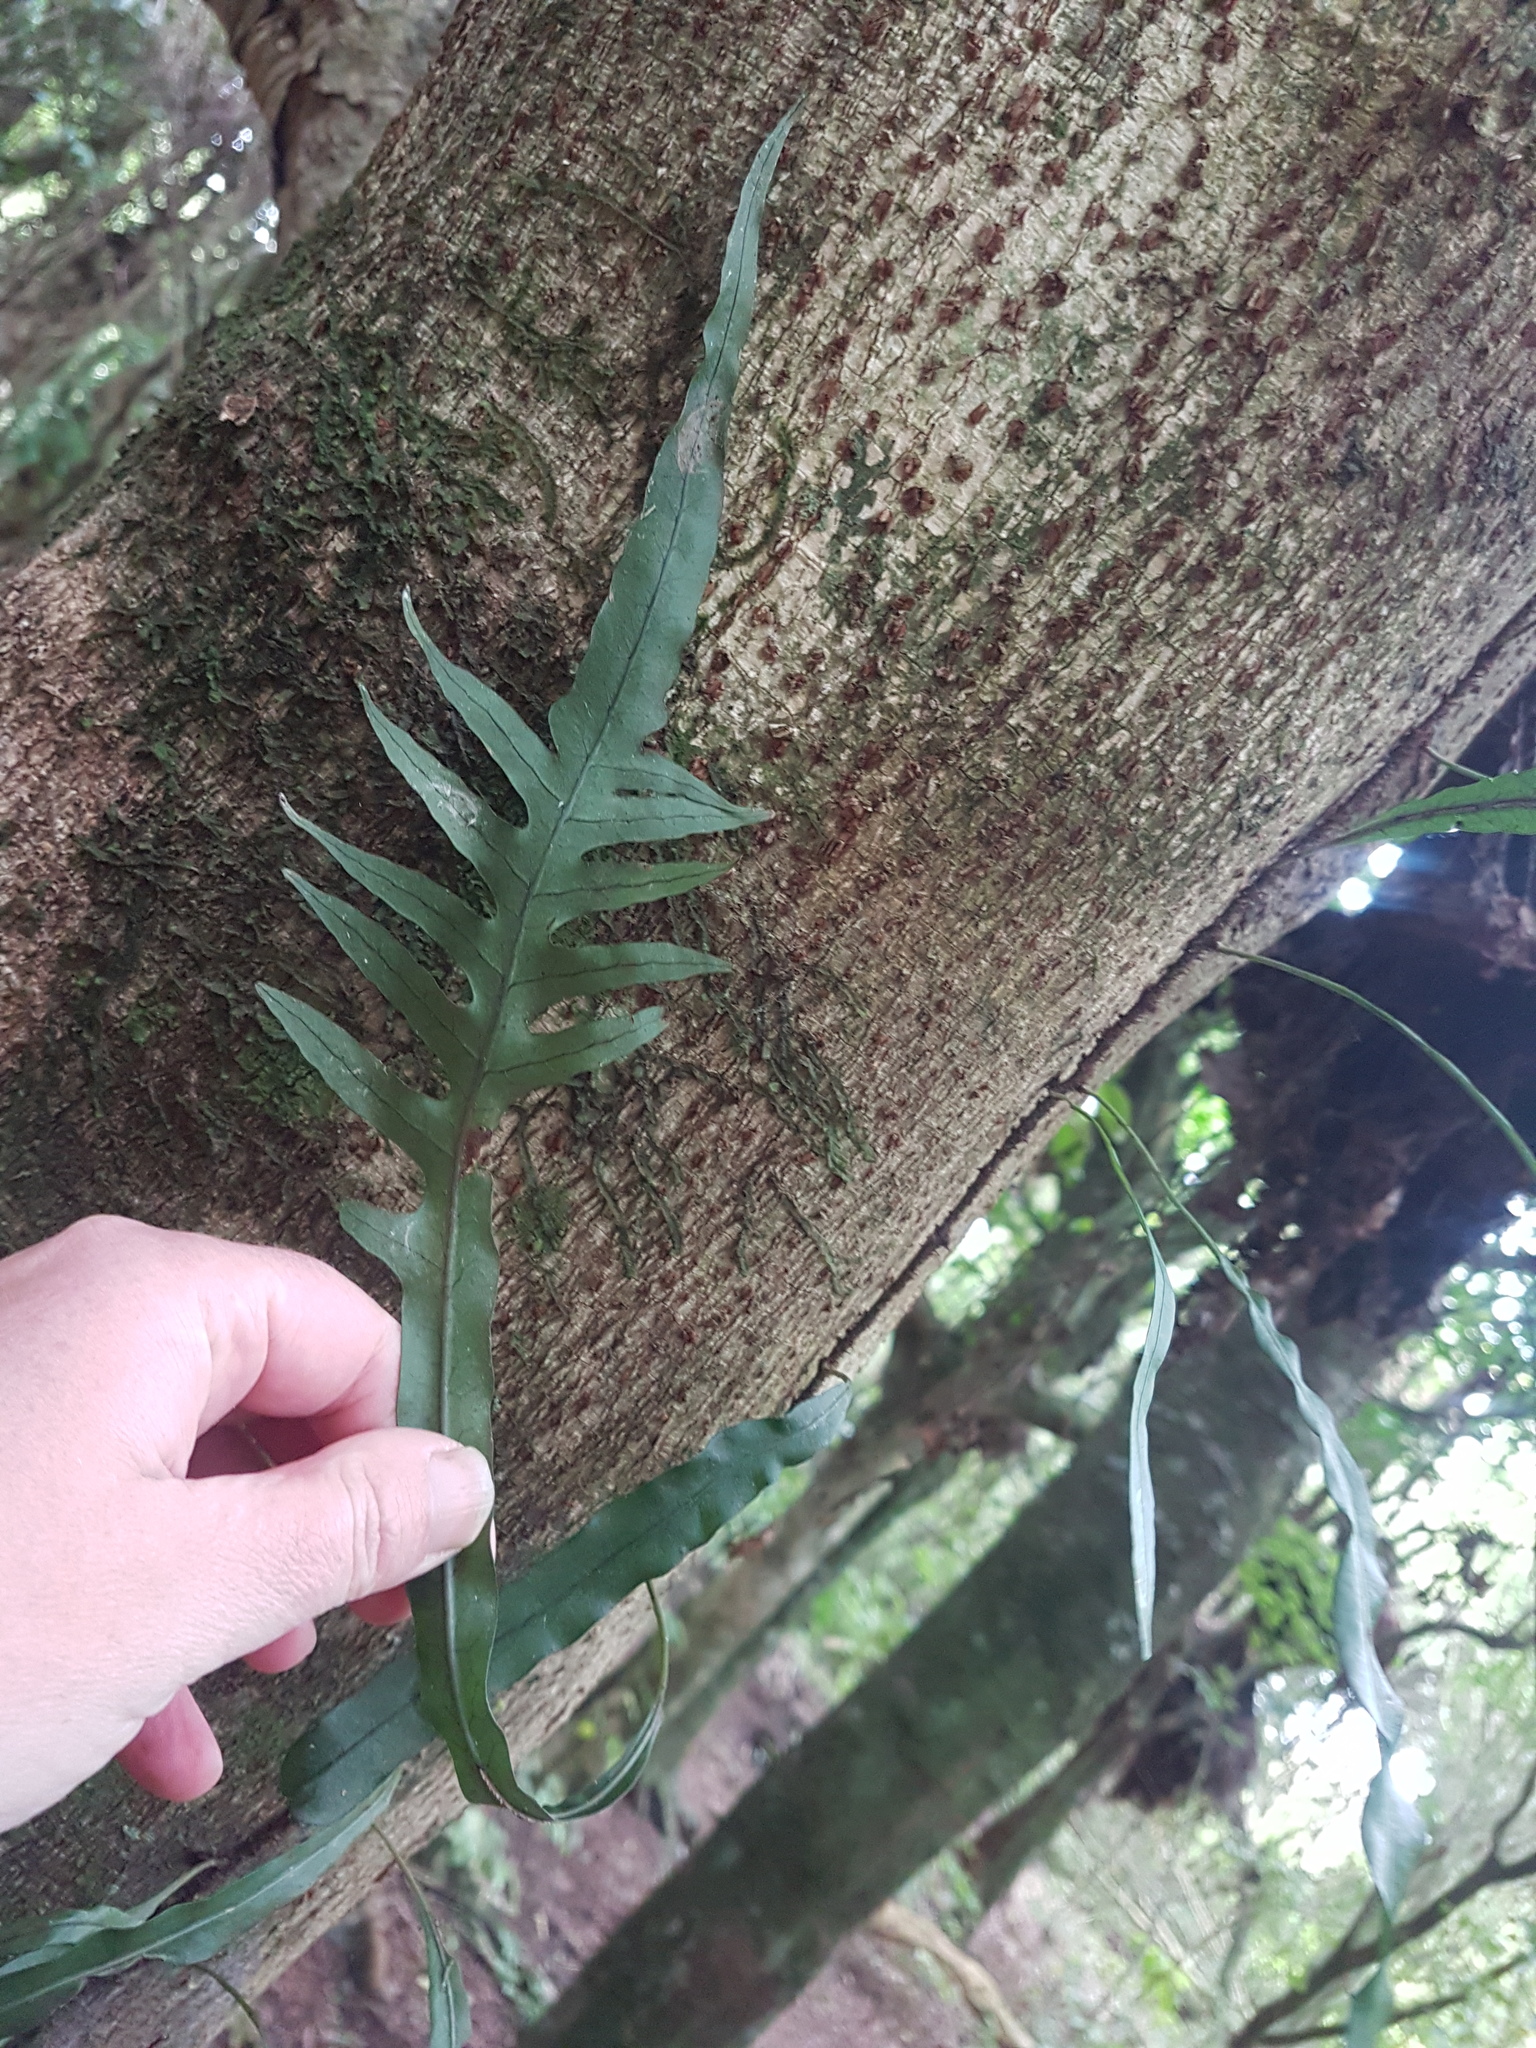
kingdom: Plantae
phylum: Tracheophyta
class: Polypodiopsida
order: Polypodiales
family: Polypodiaceae
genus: Lecanopteris
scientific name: Lecanopteris scandens
